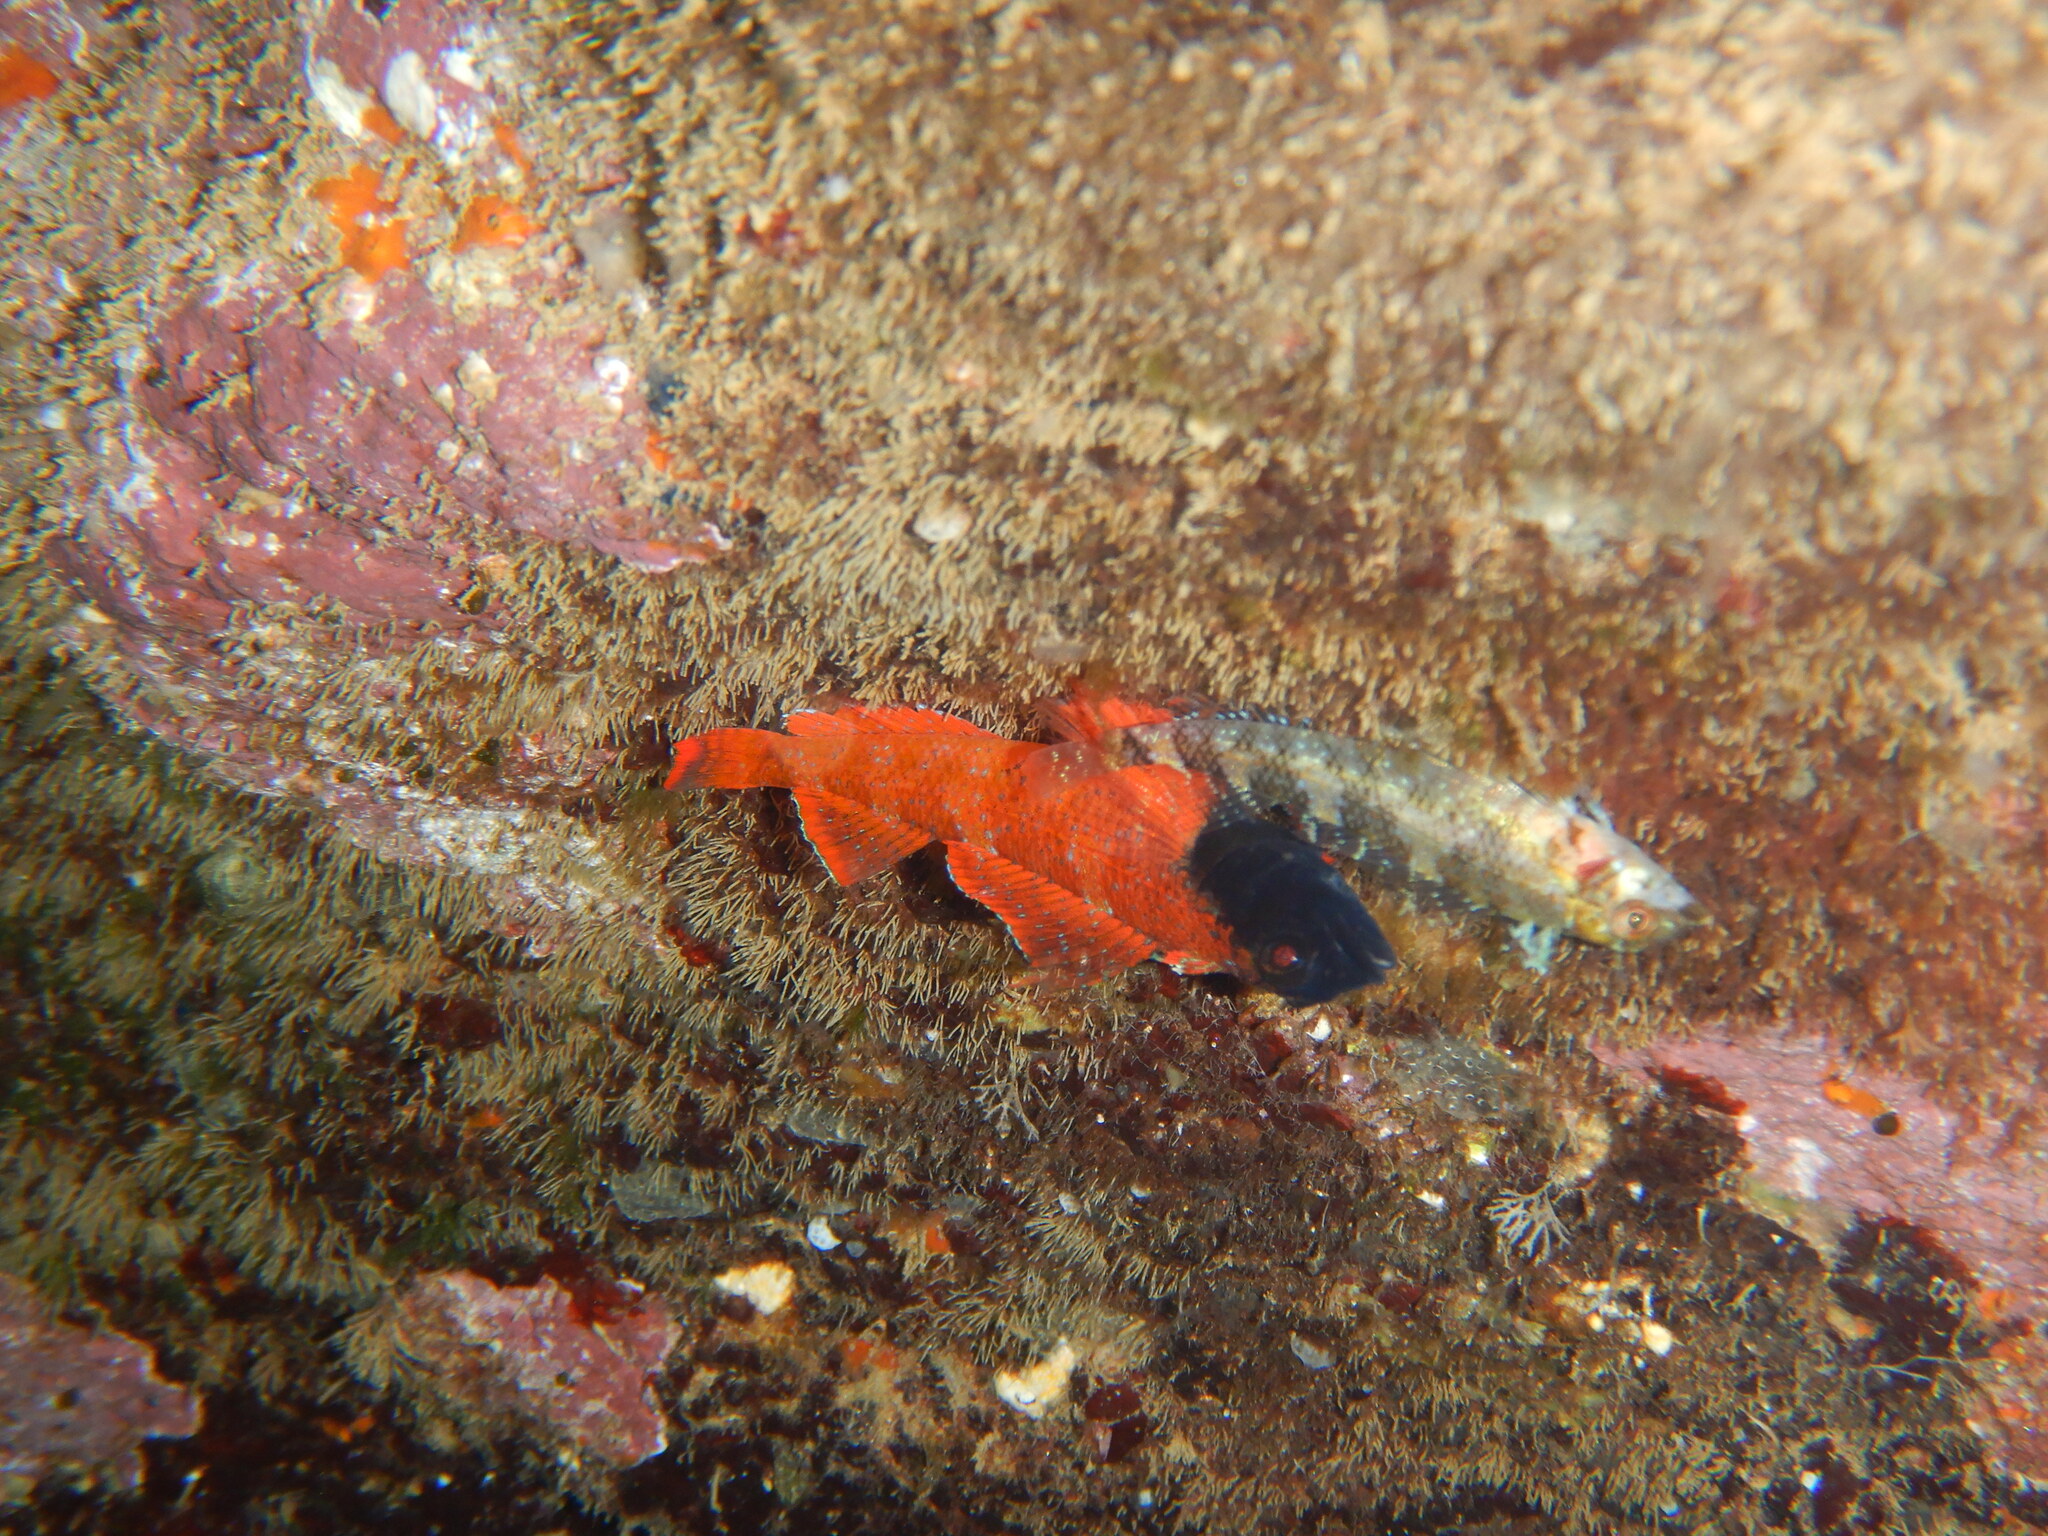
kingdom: Animalia
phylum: Chordata
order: Perciformes
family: Tripterygiidae
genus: Tripterygion
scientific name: Tripterygion tripteronotum
